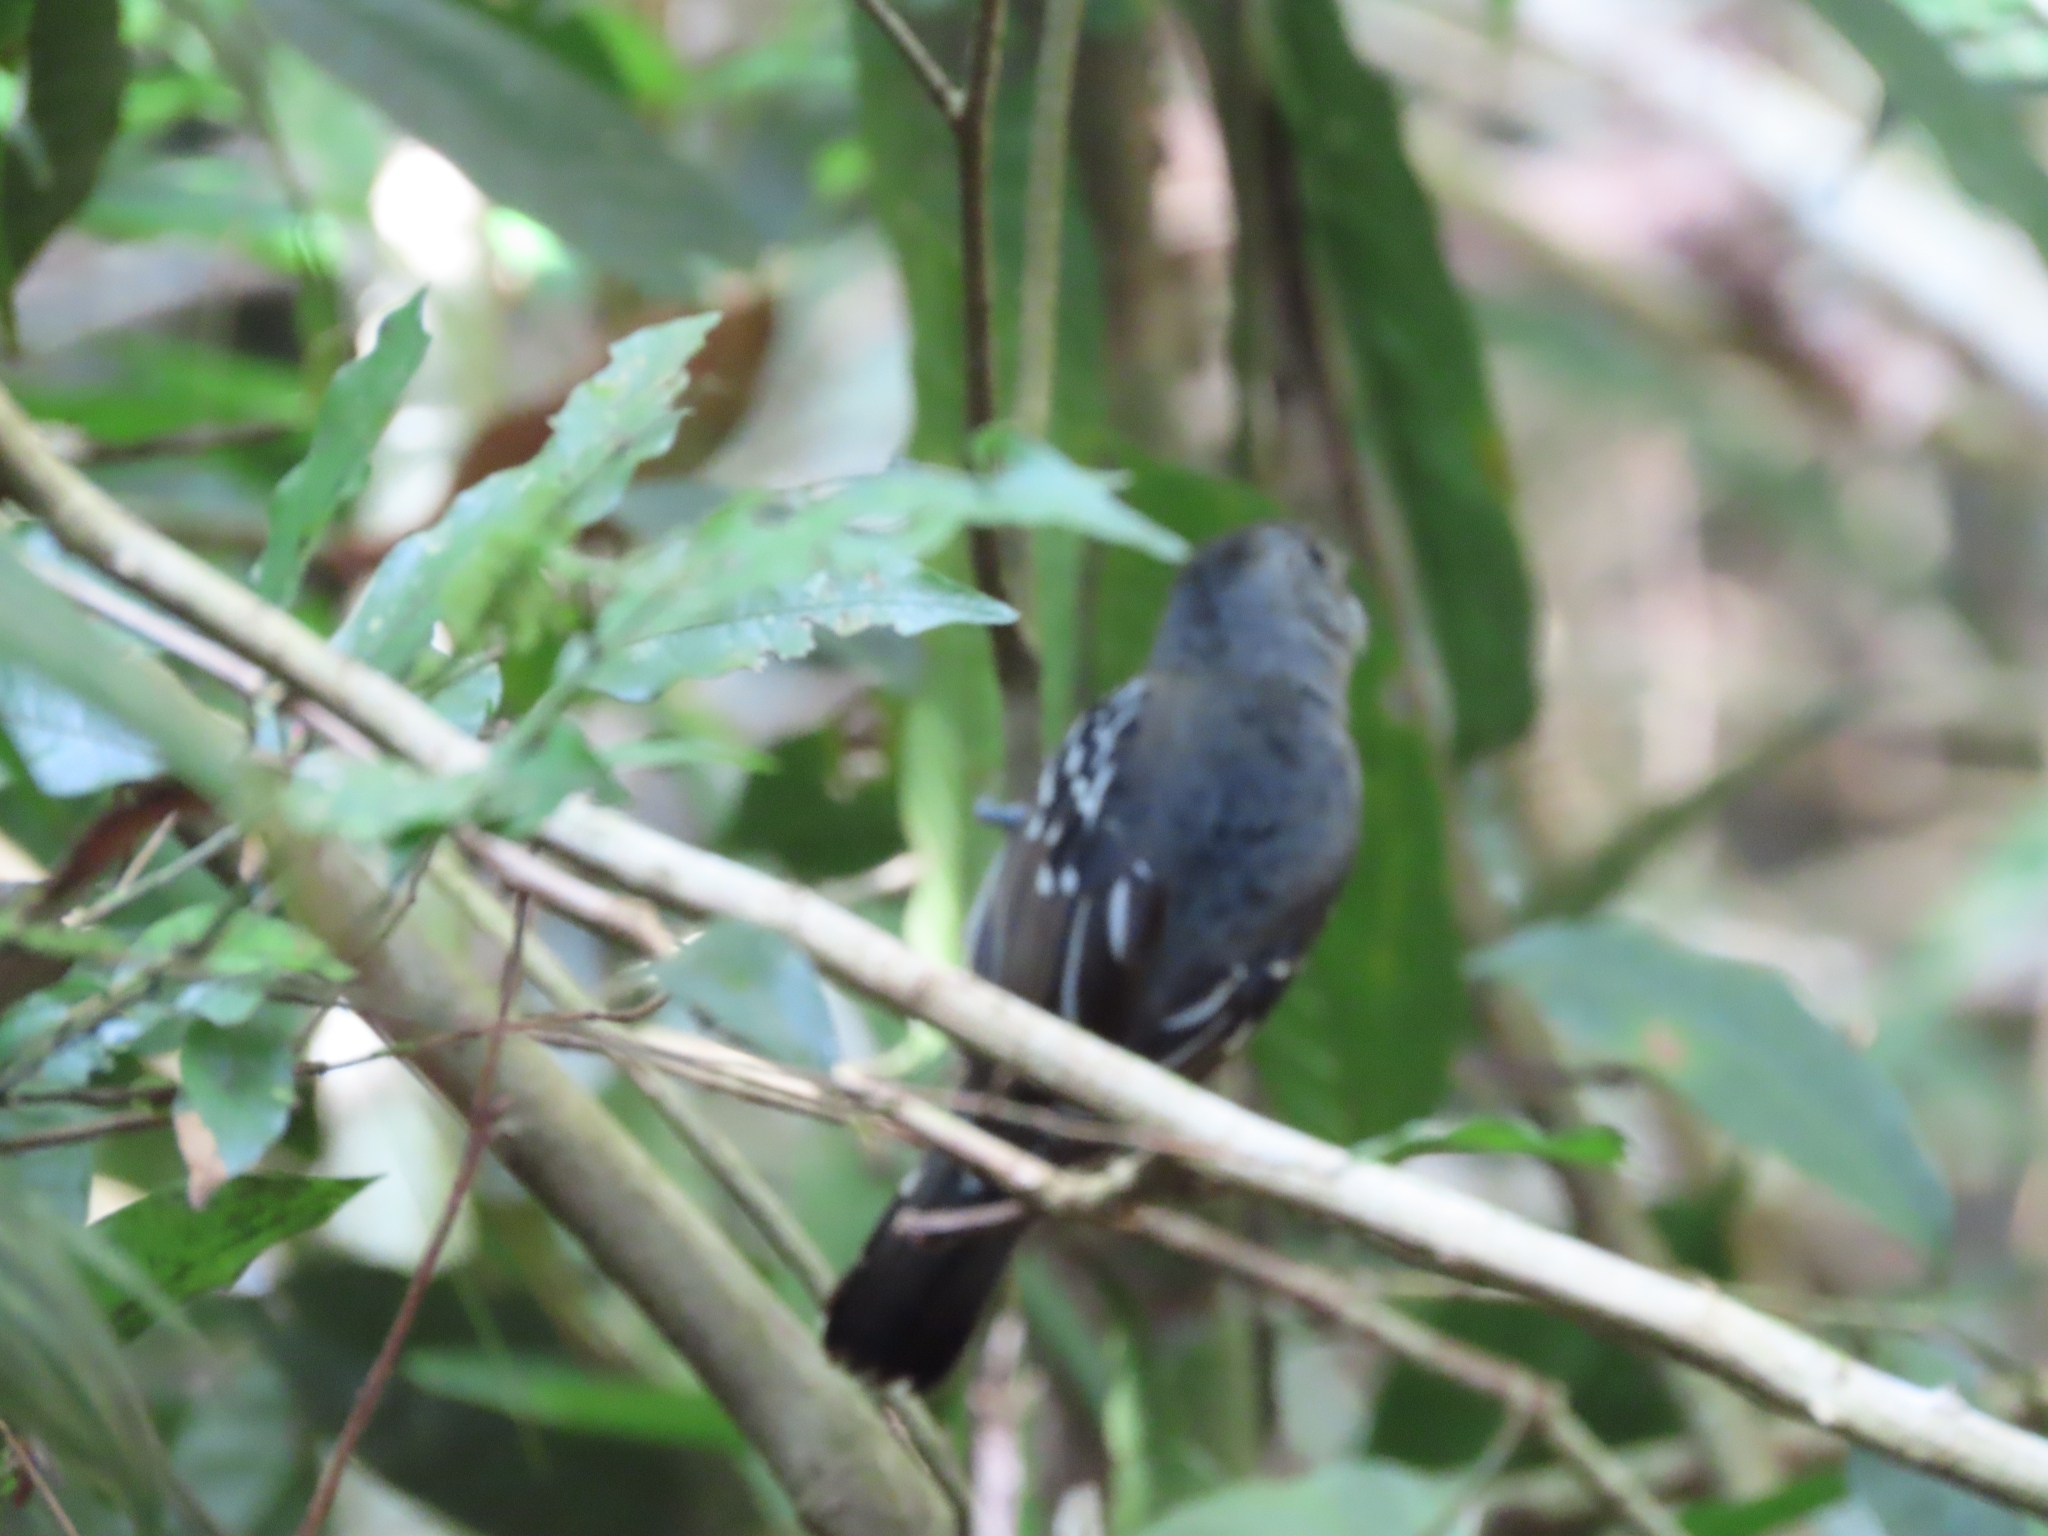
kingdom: Animalia
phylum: Chordata
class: Aves
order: Passeriformes
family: Thamnophilidae
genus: Cercomacra
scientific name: Cercomacra tyrannina
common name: Dusky antbird
